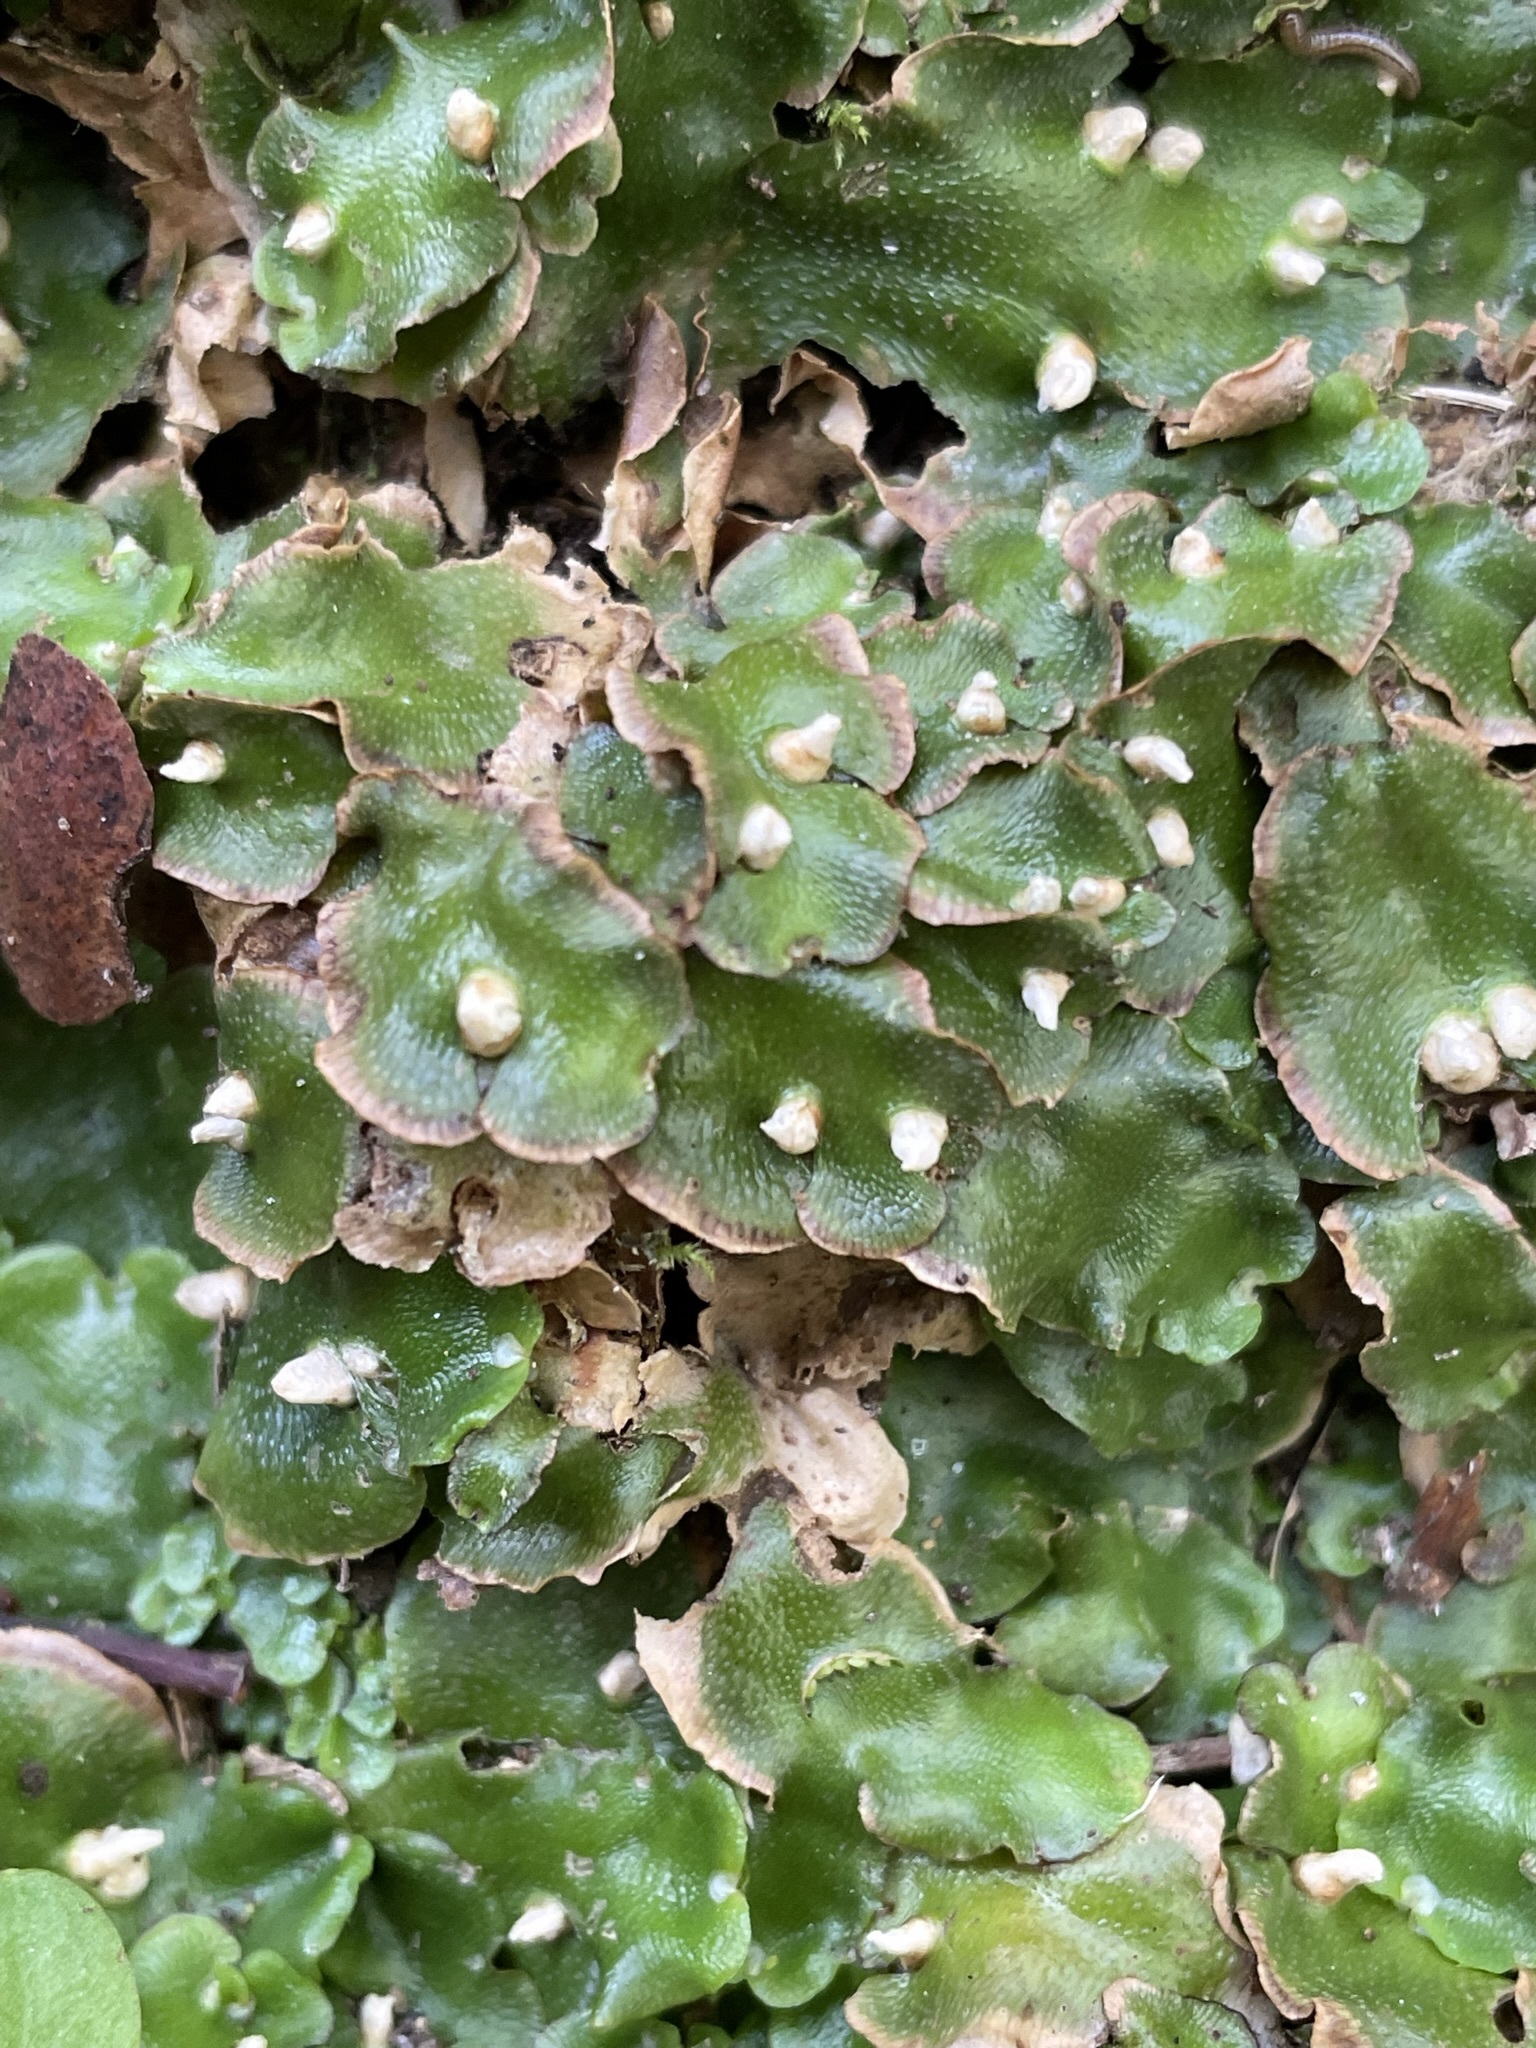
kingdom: Plantae
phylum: Marchantiophyta
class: Marchantiopsida
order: Lunulariales
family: Lunulariaceae
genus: Lunularia
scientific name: Lunularia cruciata
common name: Crescent-cup liverwort
